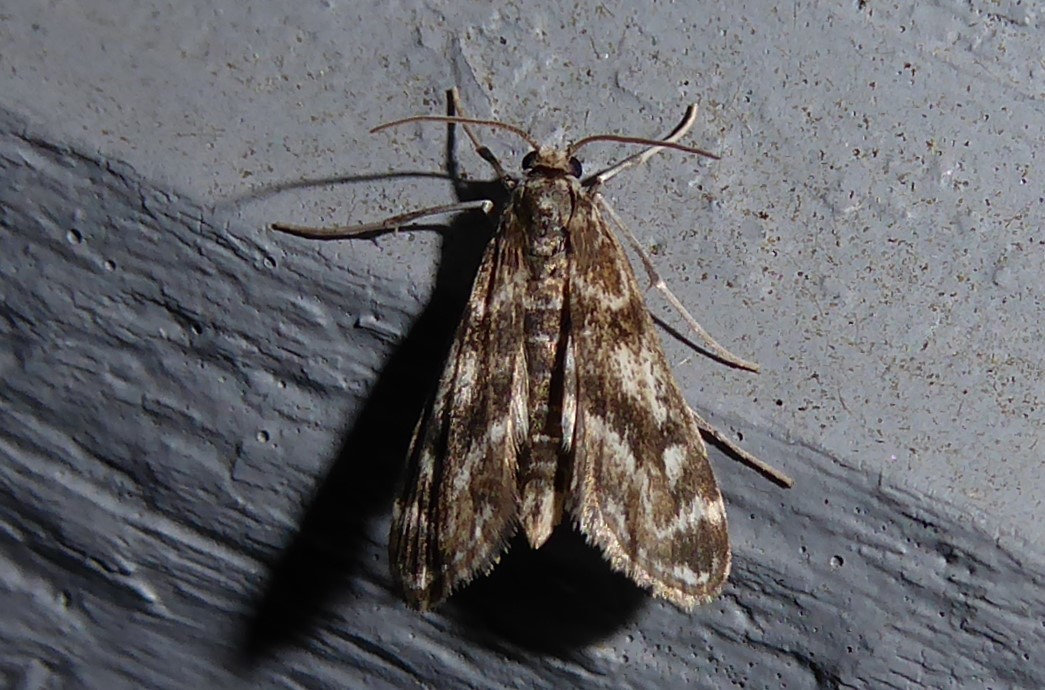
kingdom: Animalia
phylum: Arthropoda
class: Insecta
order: Lepidoptera
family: Crambidae
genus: Hygraula
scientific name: Hygraula nitens
